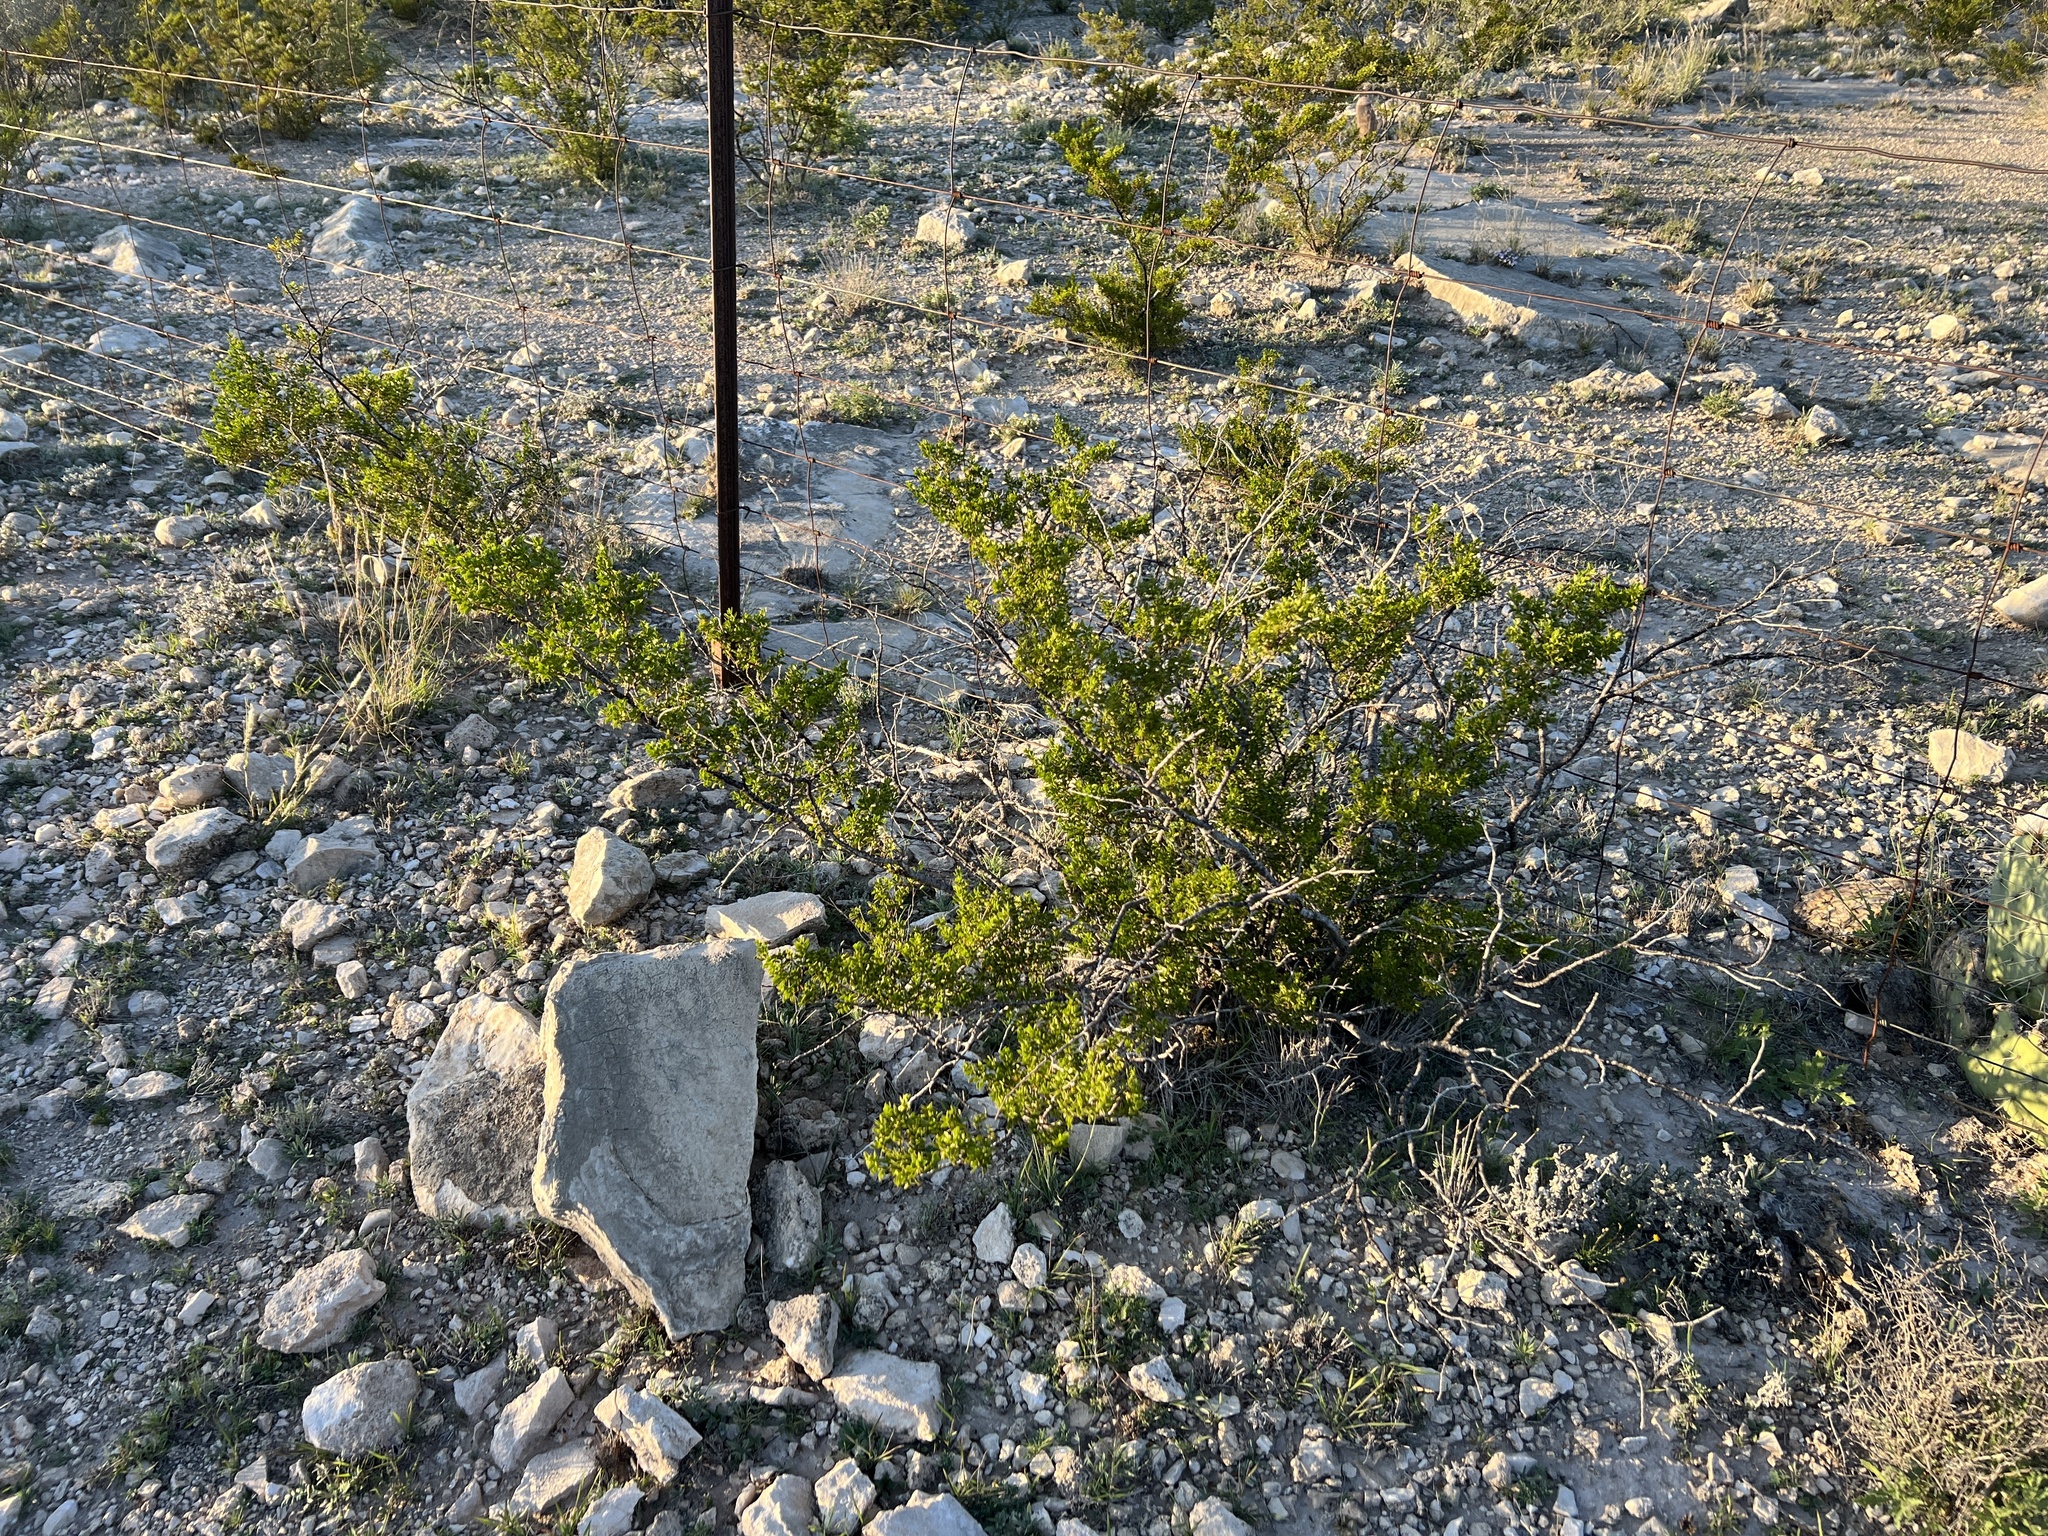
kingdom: Plantae
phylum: Tracheophyta
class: Magnoliopsida
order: Zygophyllales
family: Zygophyllaceae
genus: Larrea
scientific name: Larrea tridentata
